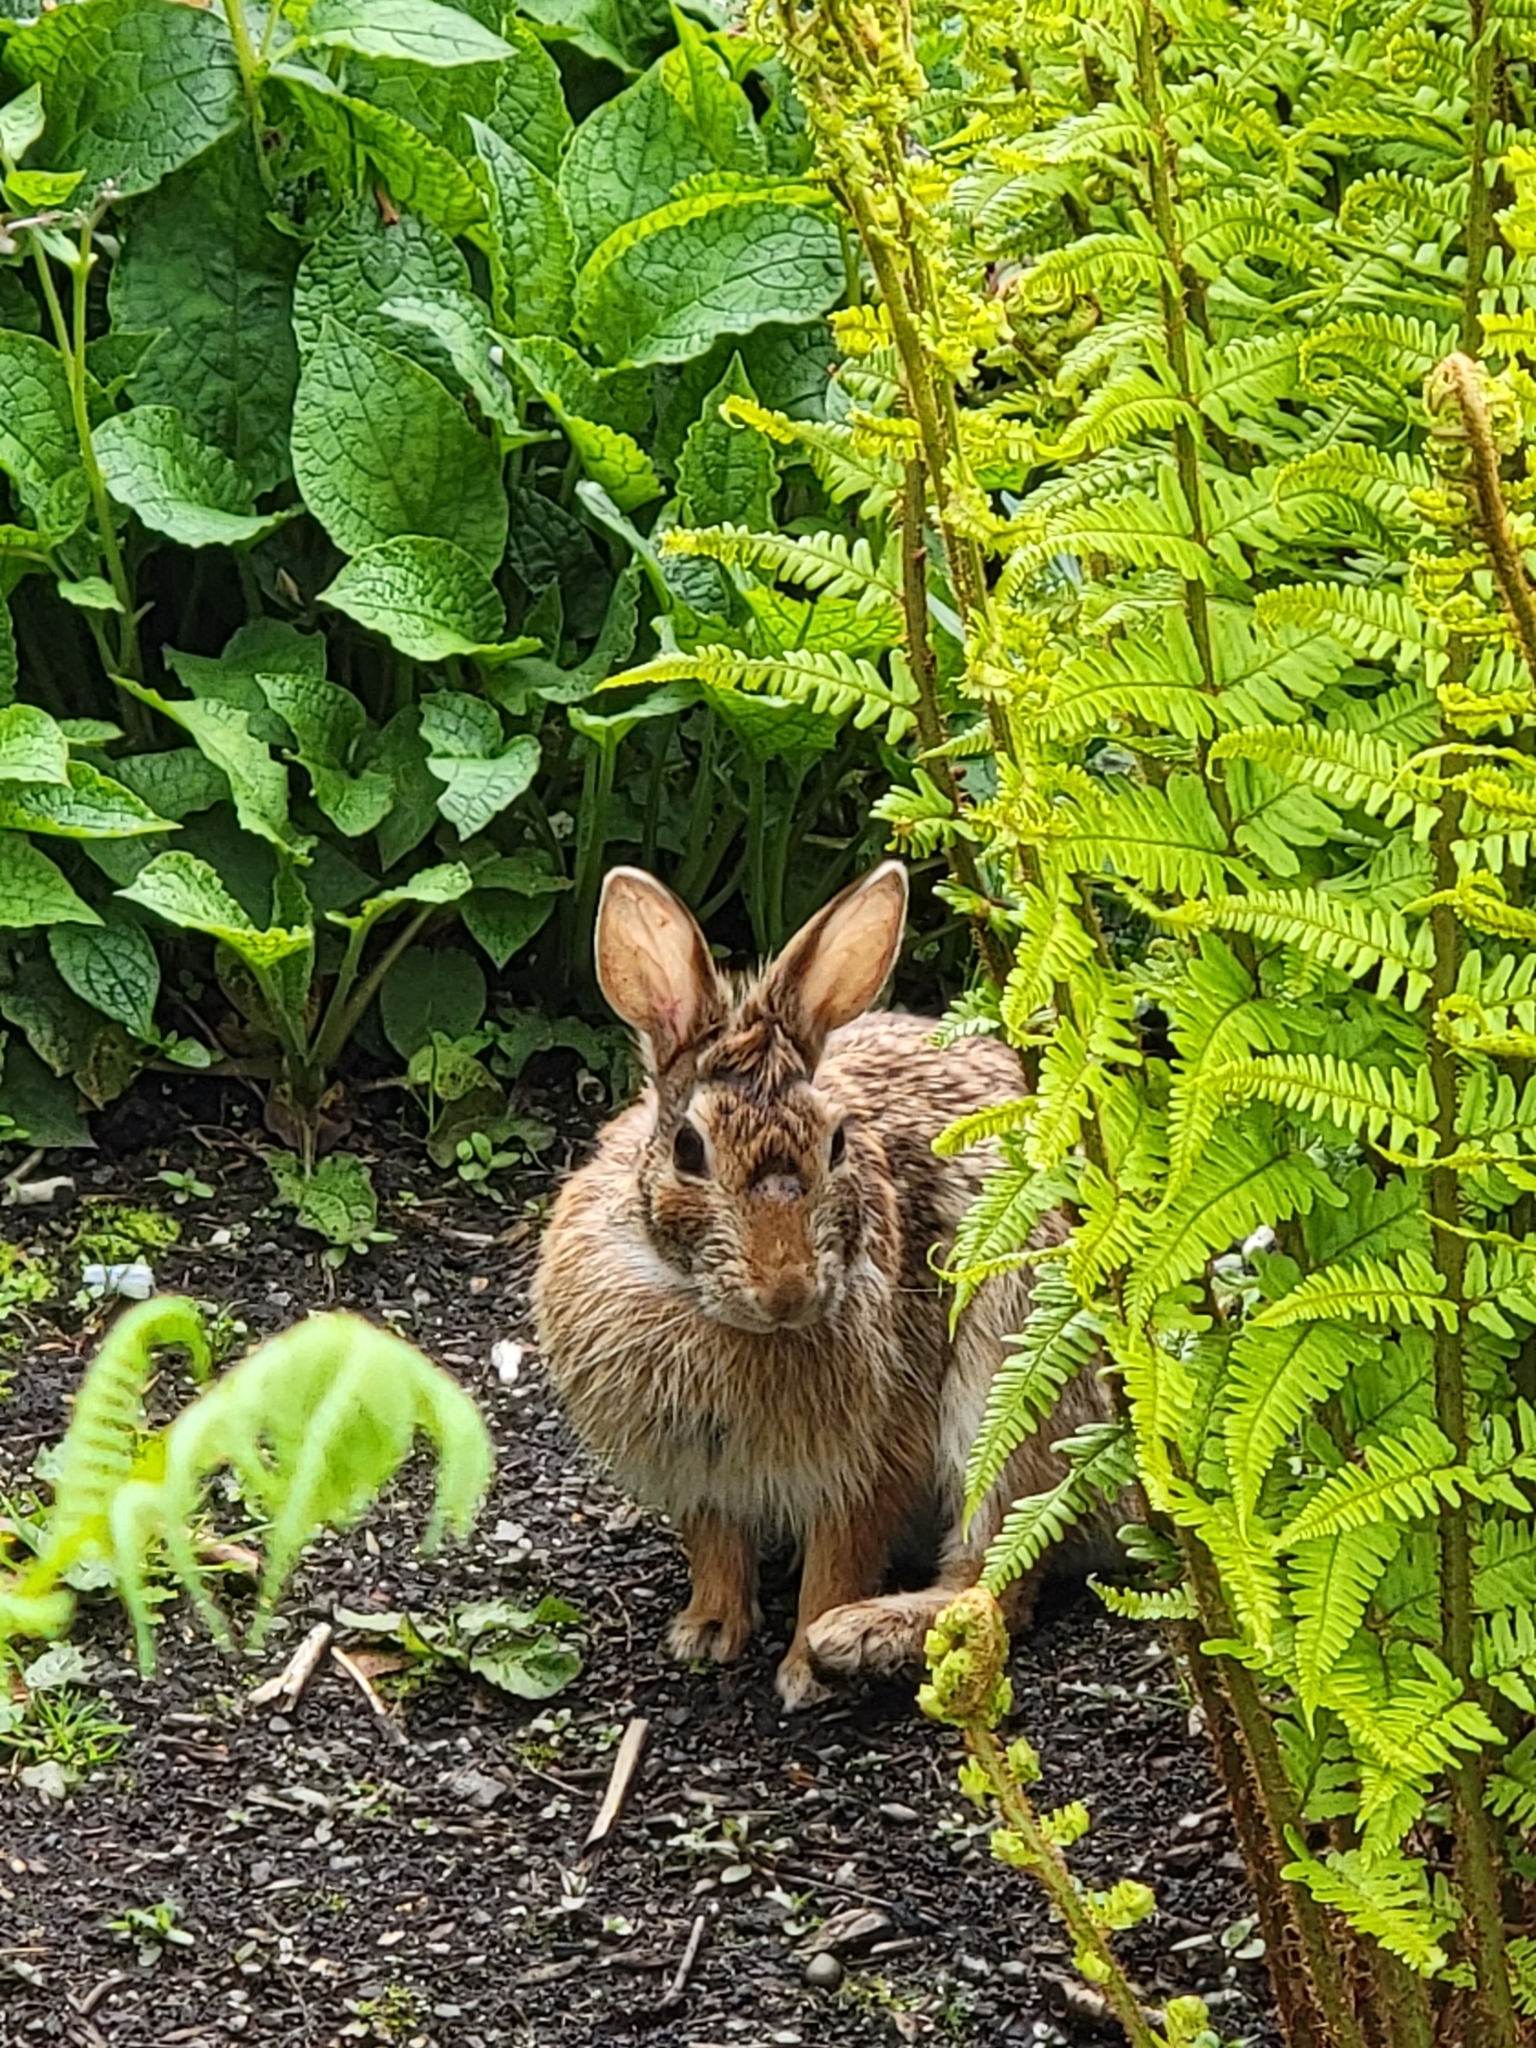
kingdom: Animalia
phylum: Chordata
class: Mammalia
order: Lagomorpha
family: Leporidae
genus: Sylvilagus
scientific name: Sylvilagus floridanus
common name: Eastern cottontail
